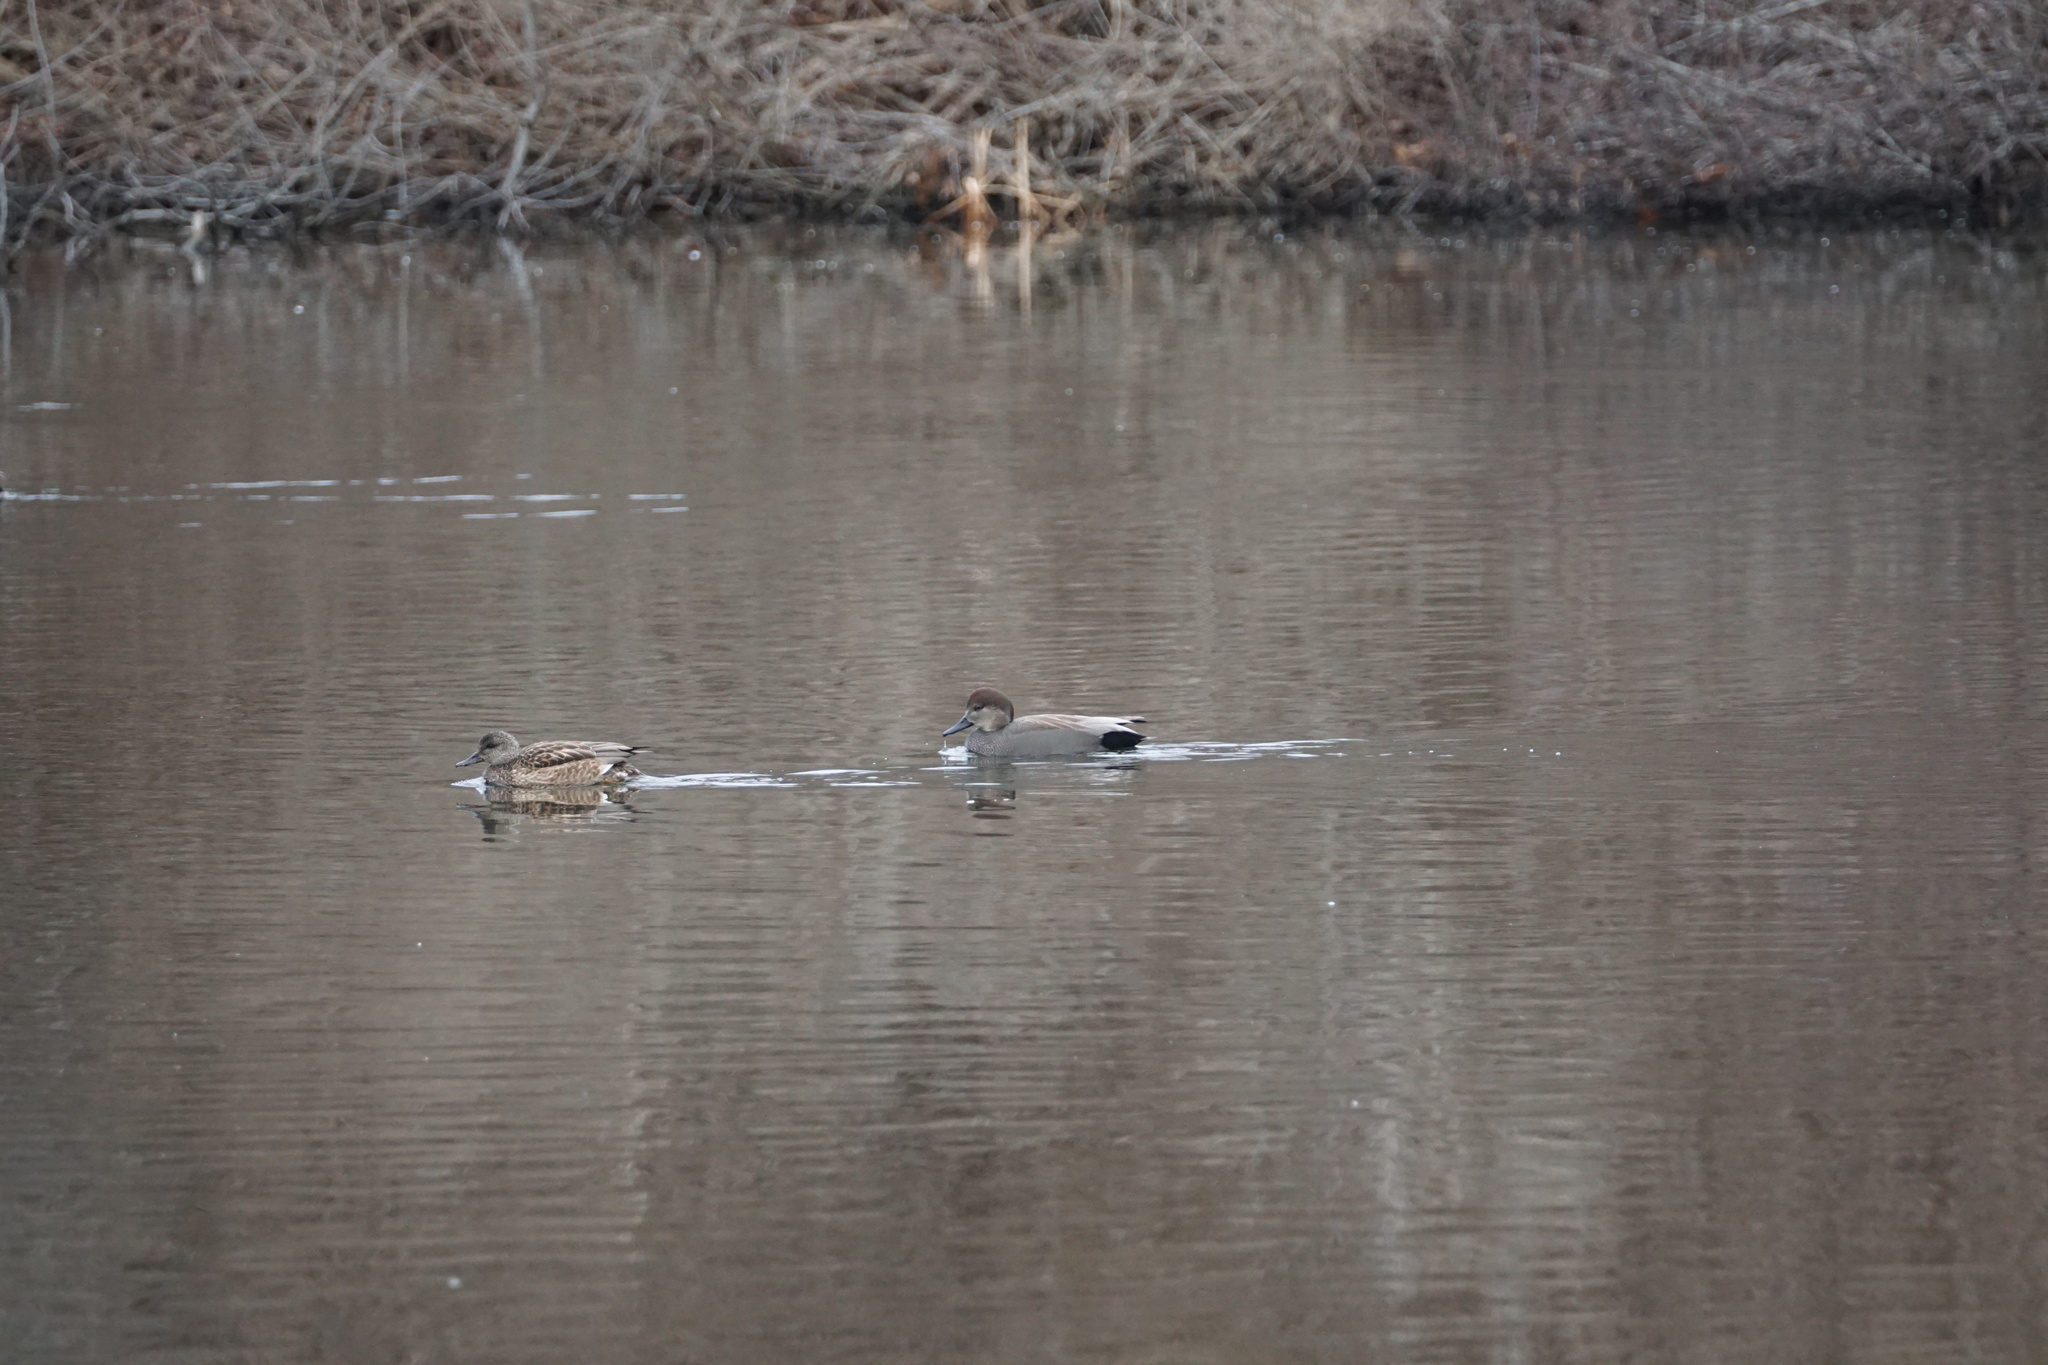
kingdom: Animalia
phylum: Chordata
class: Aves
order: Anseriformes
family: Anatidae
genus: Mareca
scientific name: Mareca strepera
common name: Gadwall
